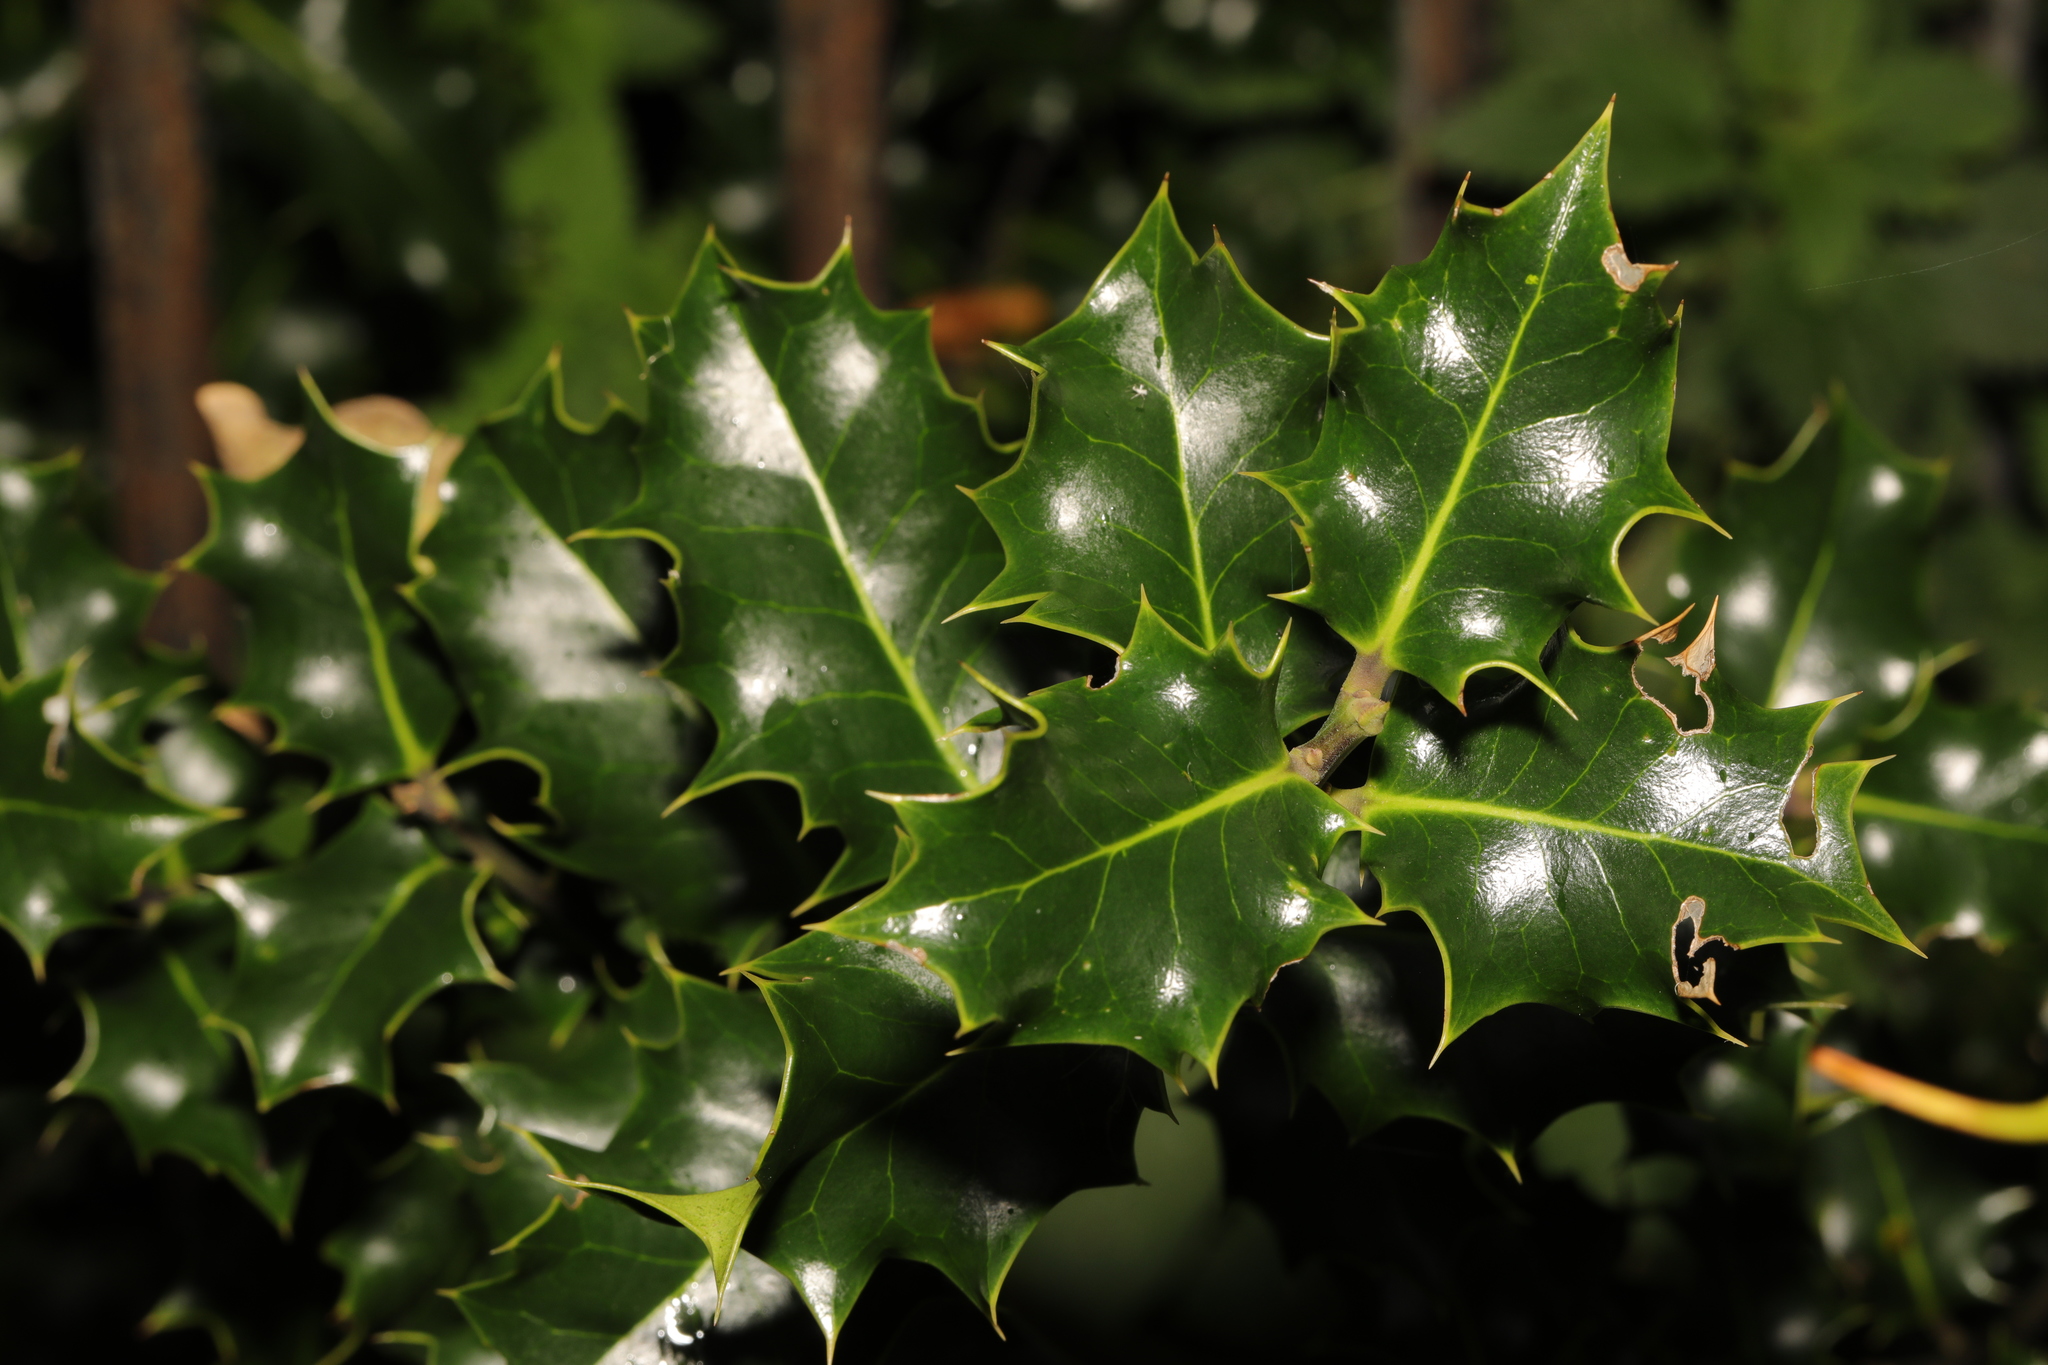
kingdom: Plantae
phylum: Tracheophyta
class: Magnoliopsida
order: Aquifoliales
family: Aquifoliaceae
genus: Ilex
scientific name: Ilex aquifolium
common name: English holly
